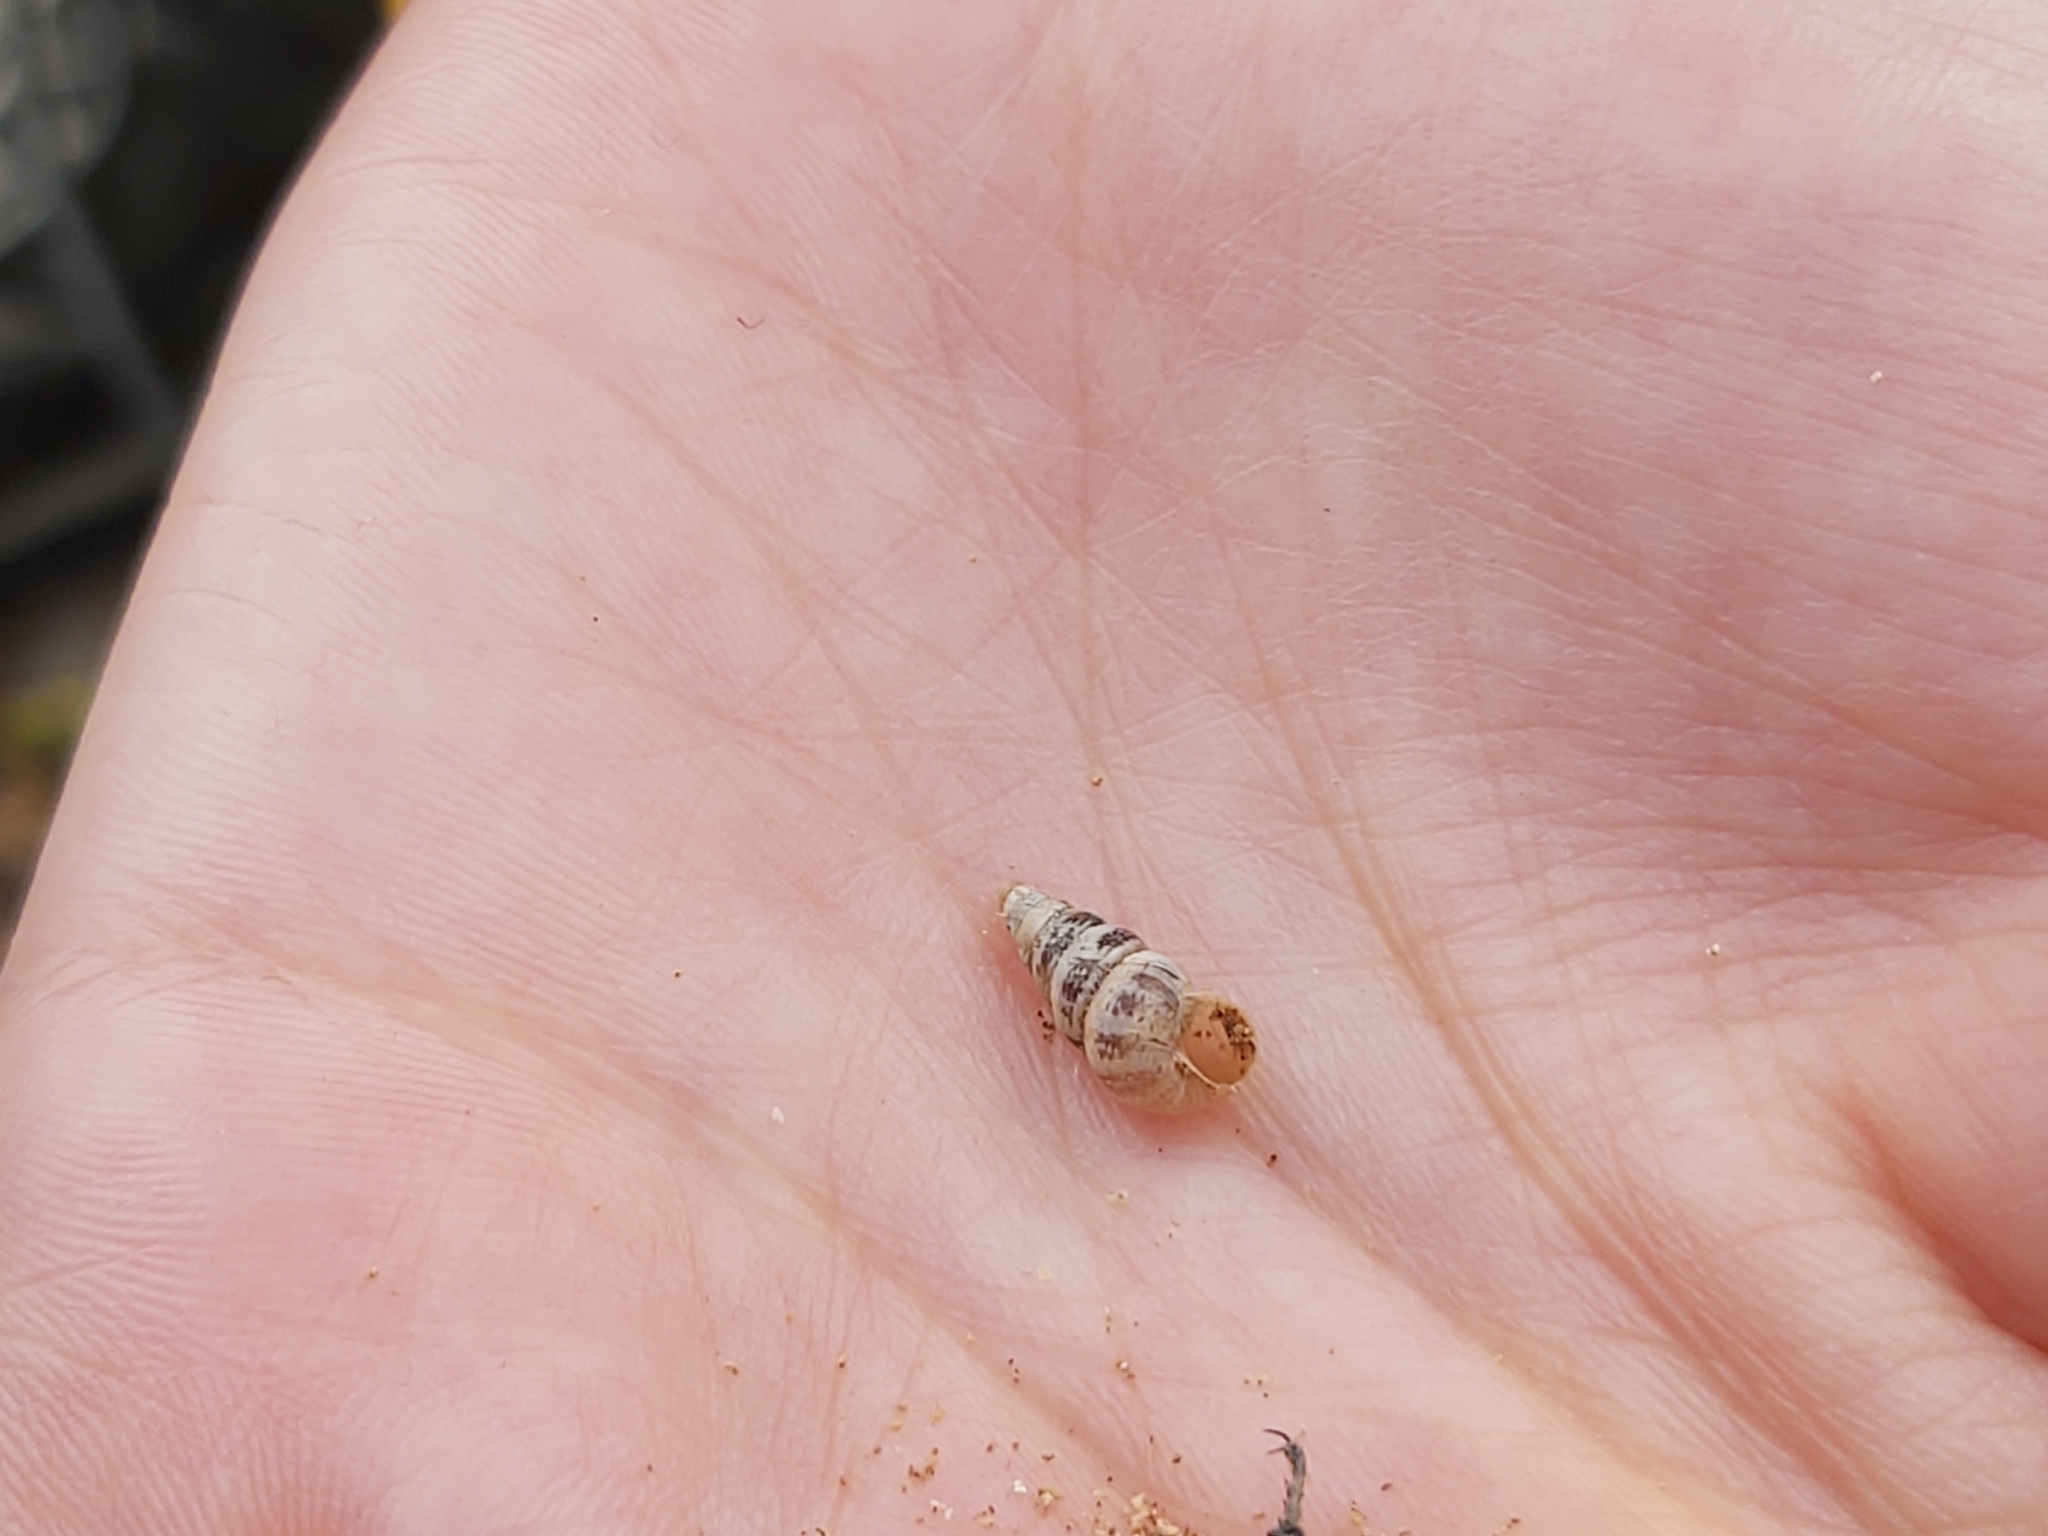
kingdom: Animalia
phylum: Mollusca
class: Gastropoda
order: Stylommatophora
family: Geomitridae
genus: Cochlicella
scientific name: Cochlicella acuta
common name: Pointed snail
